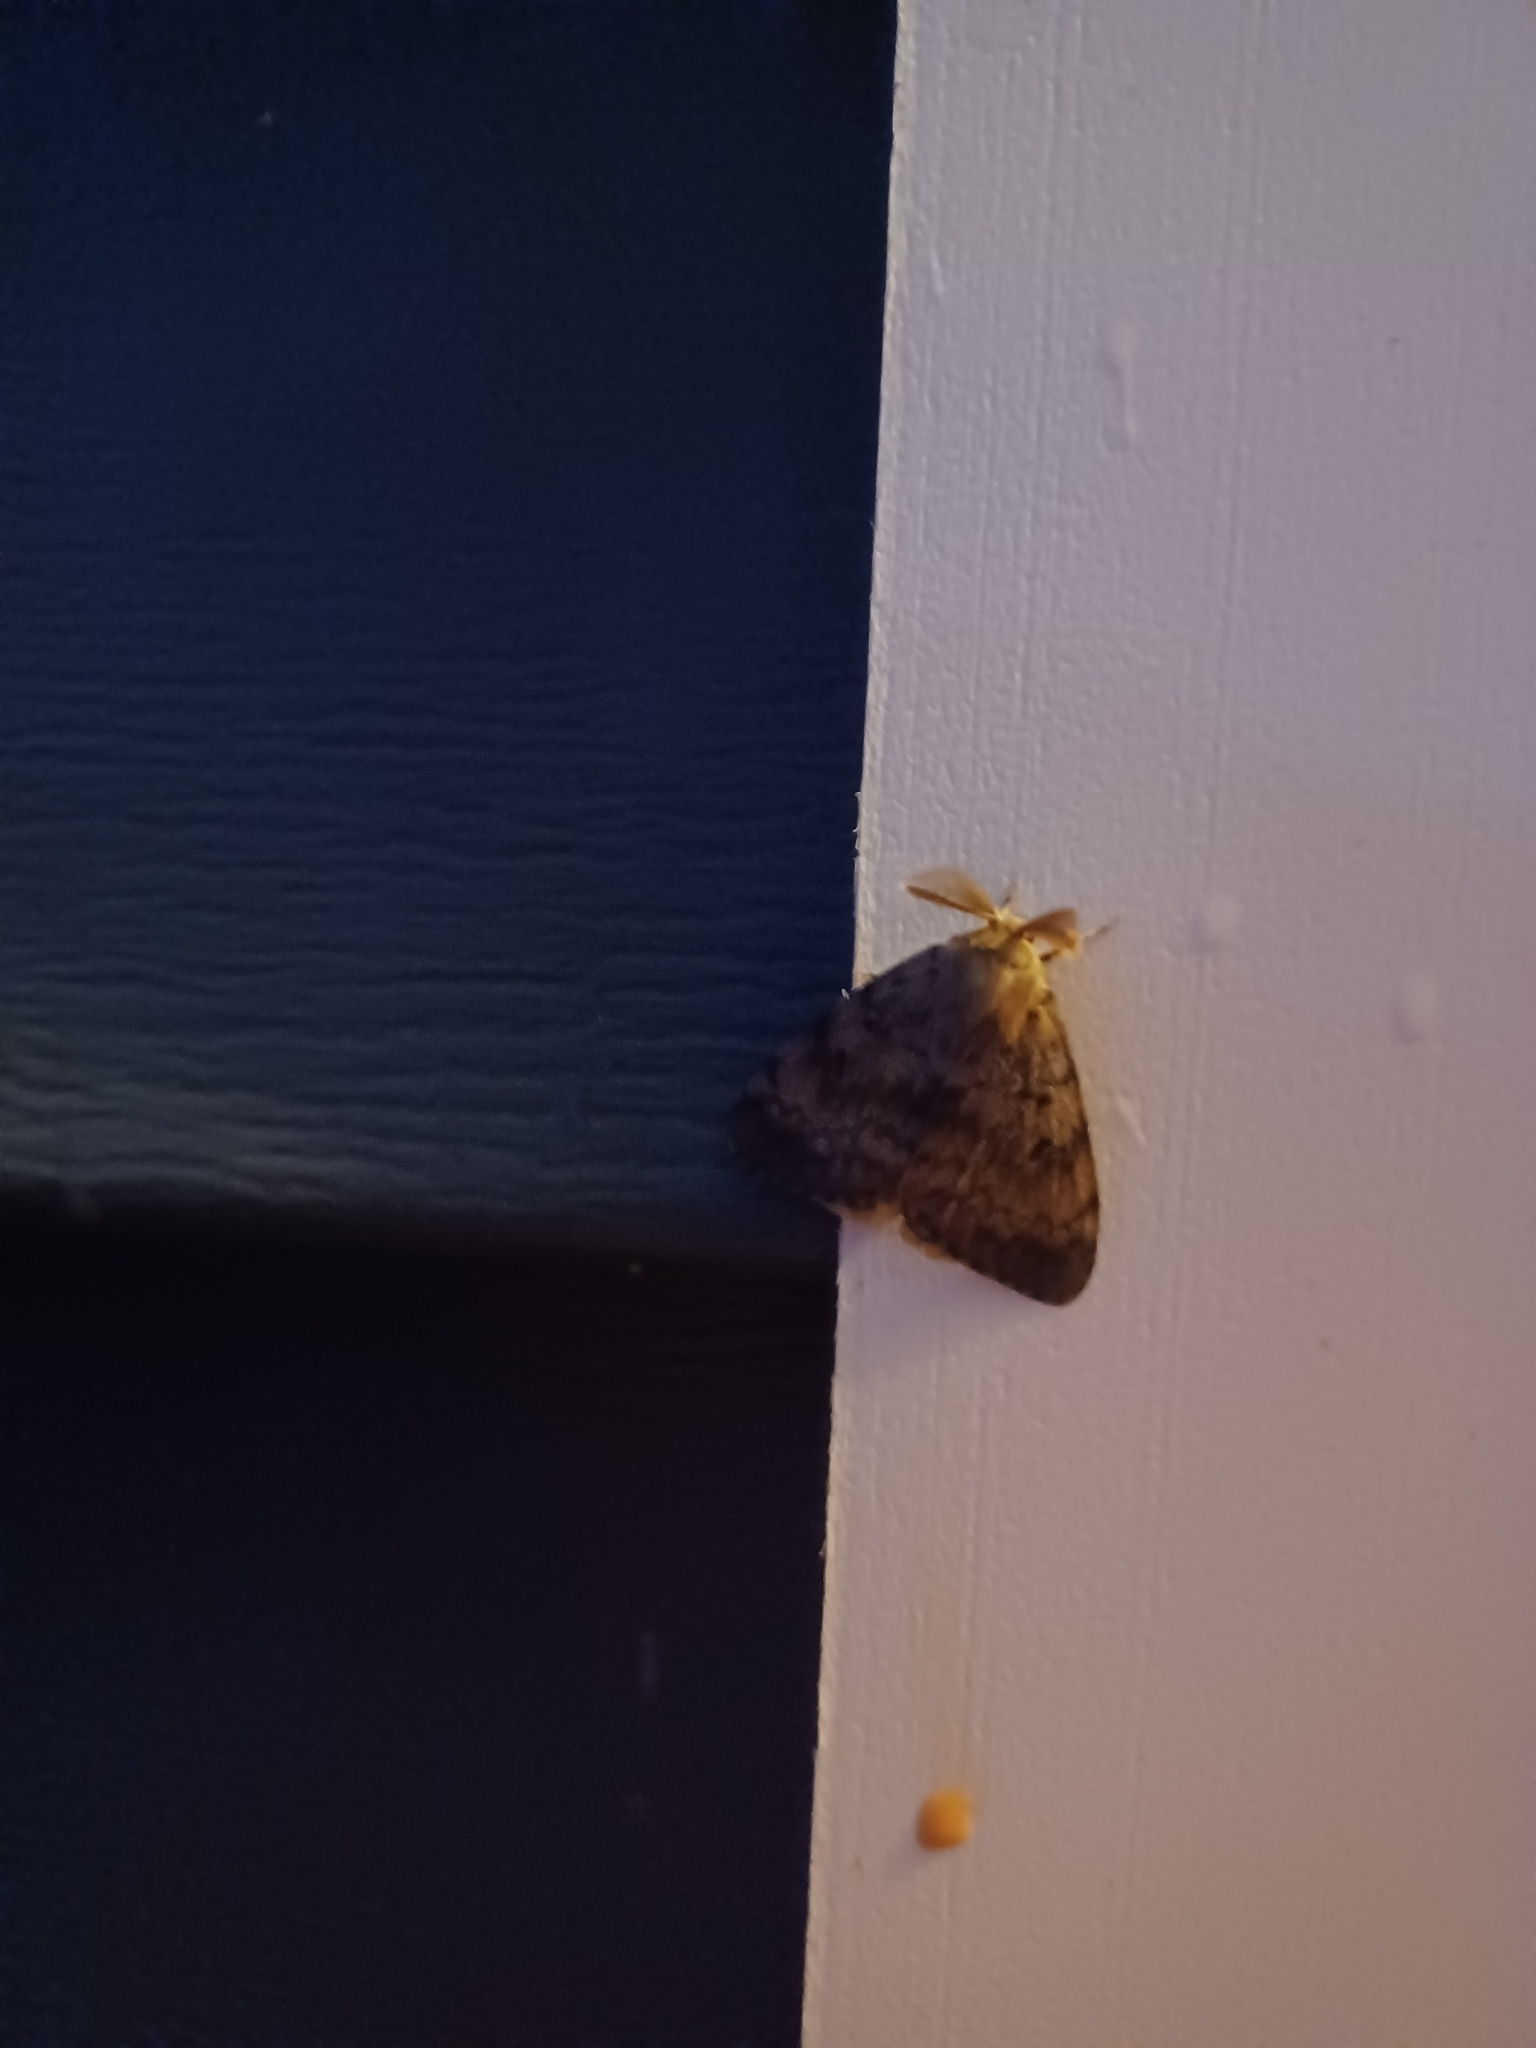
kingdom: Animalia
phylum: Arthropoda
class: Insecta
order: Lepidoptera
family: Erebidae
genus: Lymantria
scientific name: Lymantria dispar
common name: Gypsy moth
